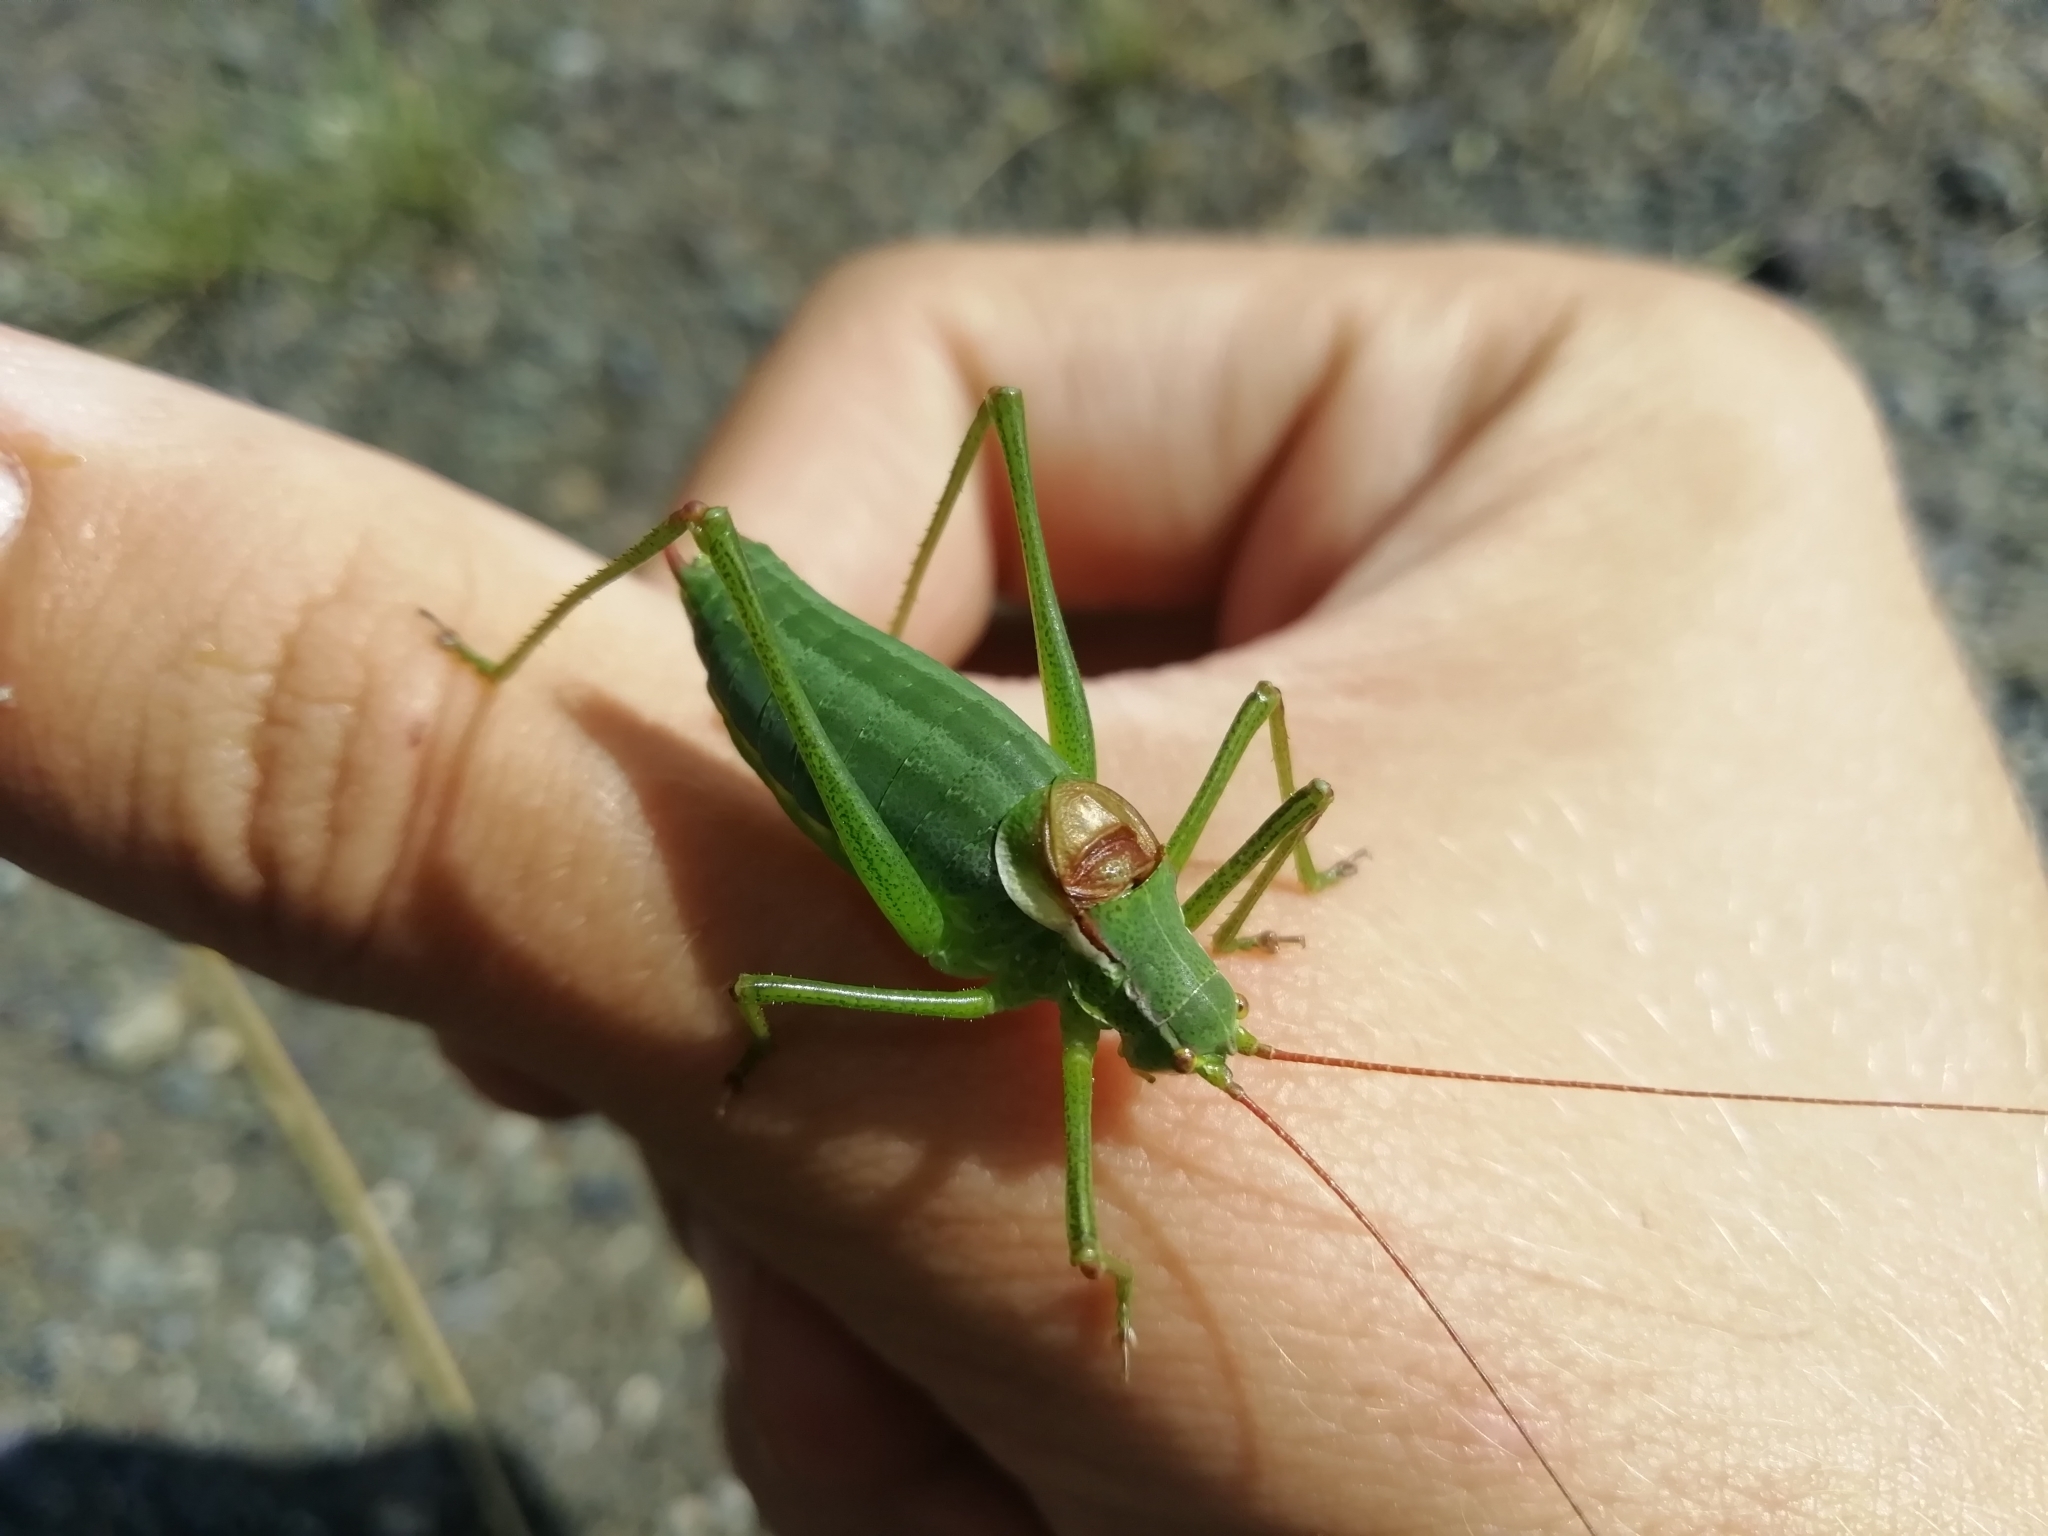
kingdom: Animalia
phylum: Arthropoda
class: Insecta
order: Orthoptera
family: Tettigoniidae
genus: Isophya
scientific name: Isophya altaica
